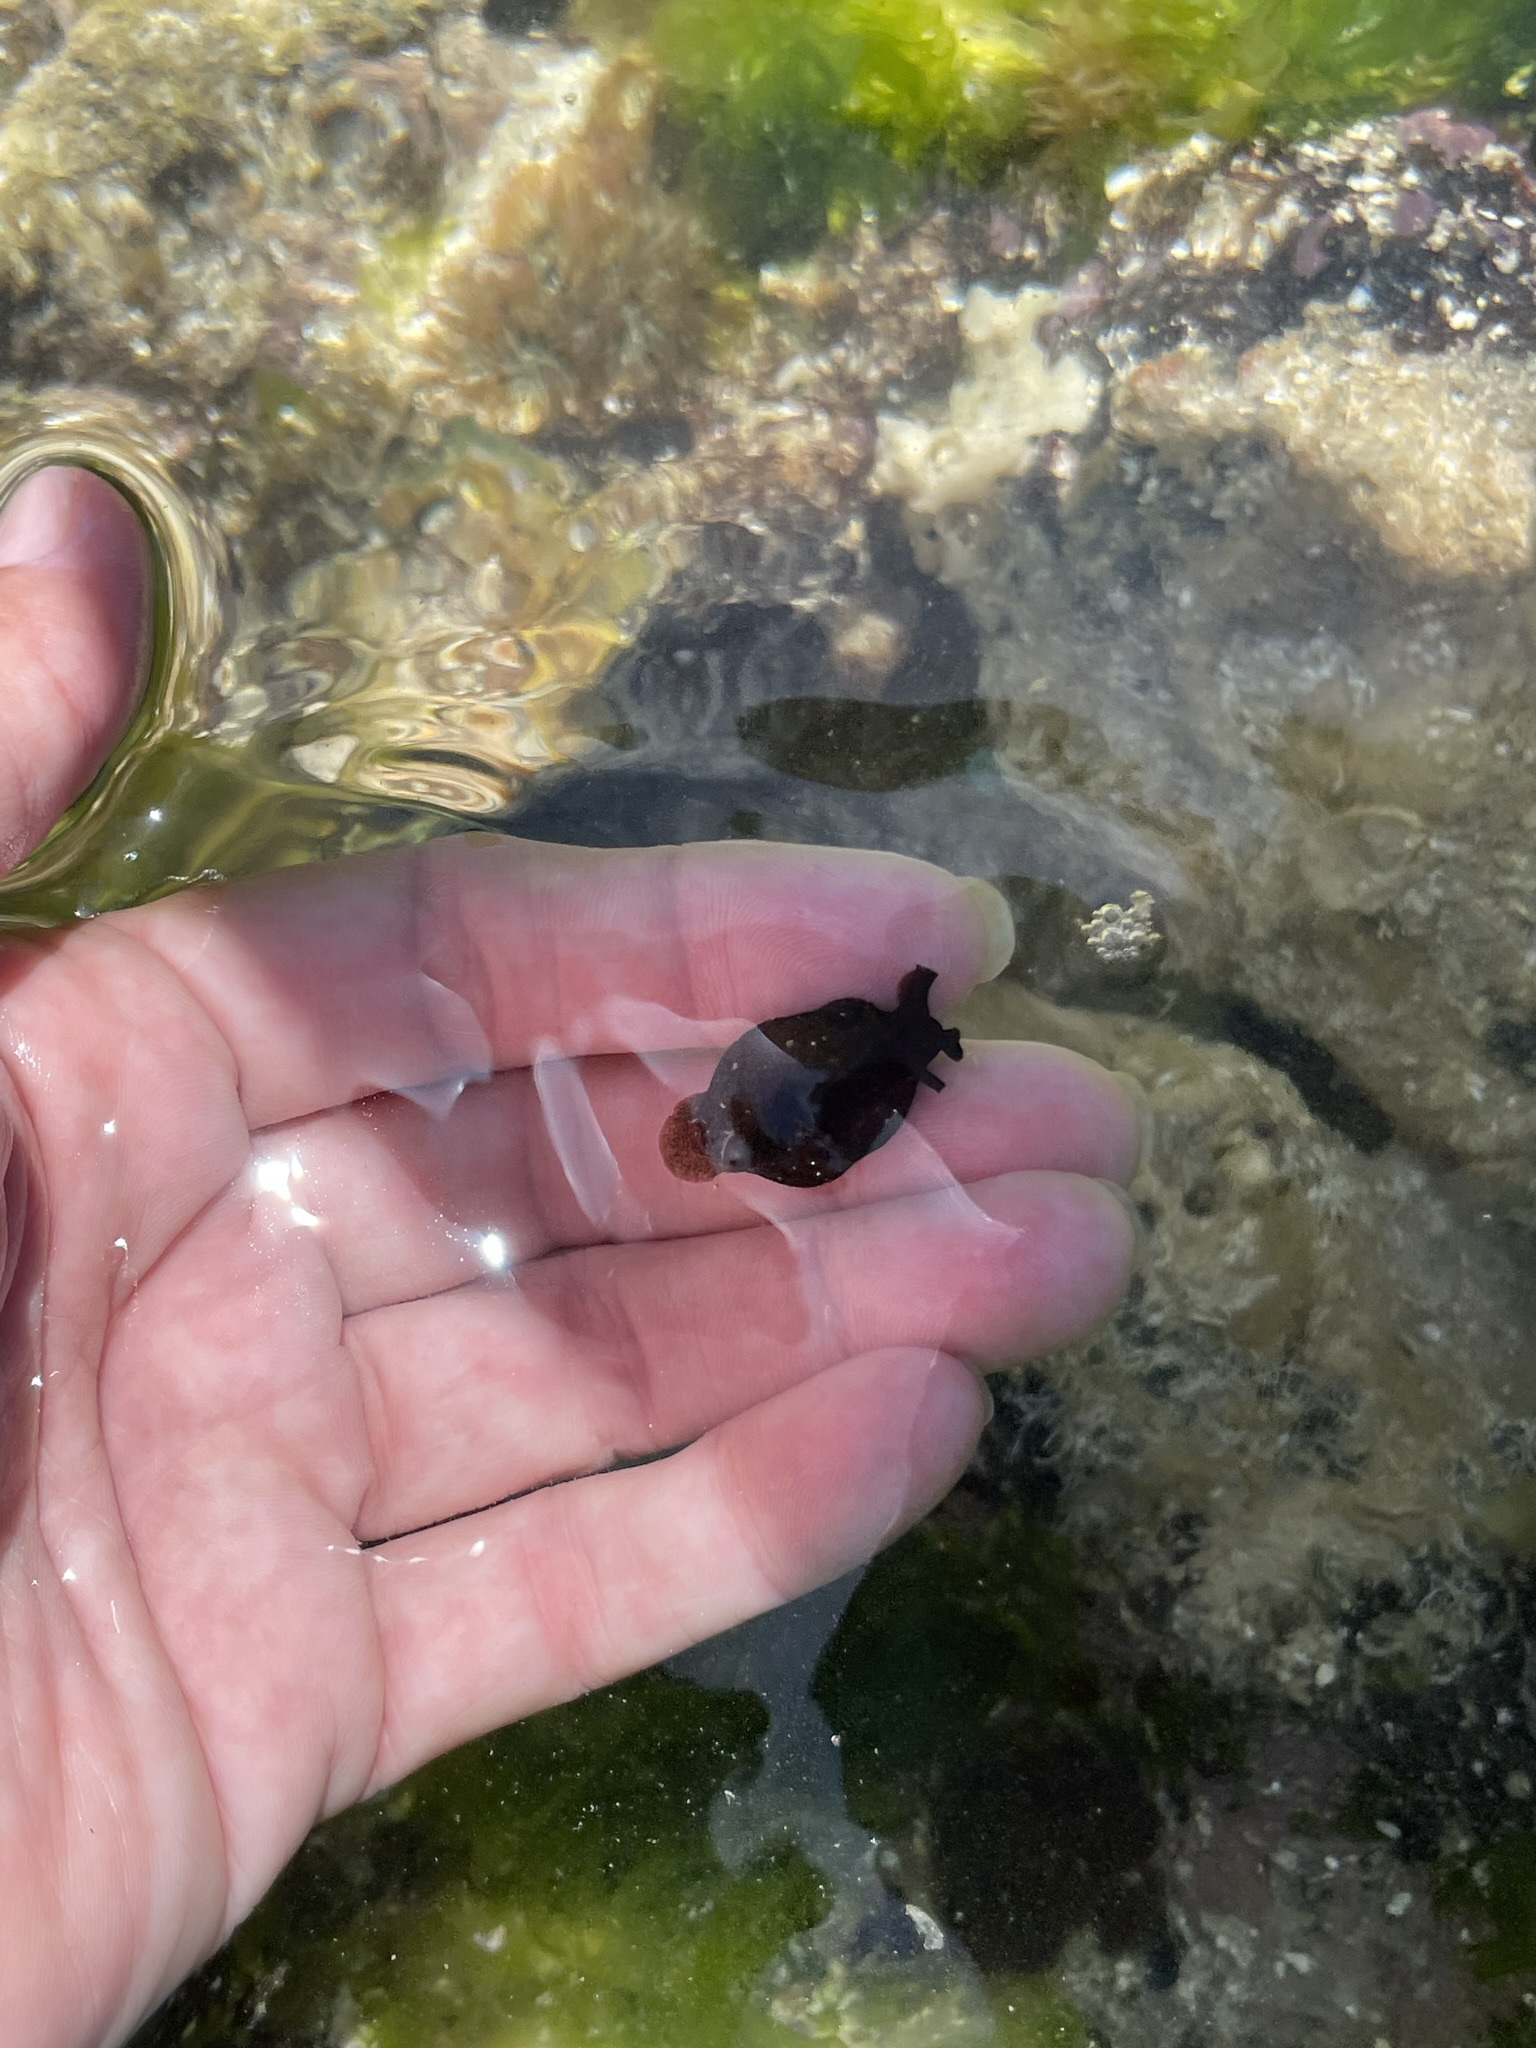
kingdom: Animalia
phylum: Mollusca
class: Gastropoda
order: Aplysiida
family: Aplysiidae
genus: Aplysia
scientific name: Aplysia vaccaria
